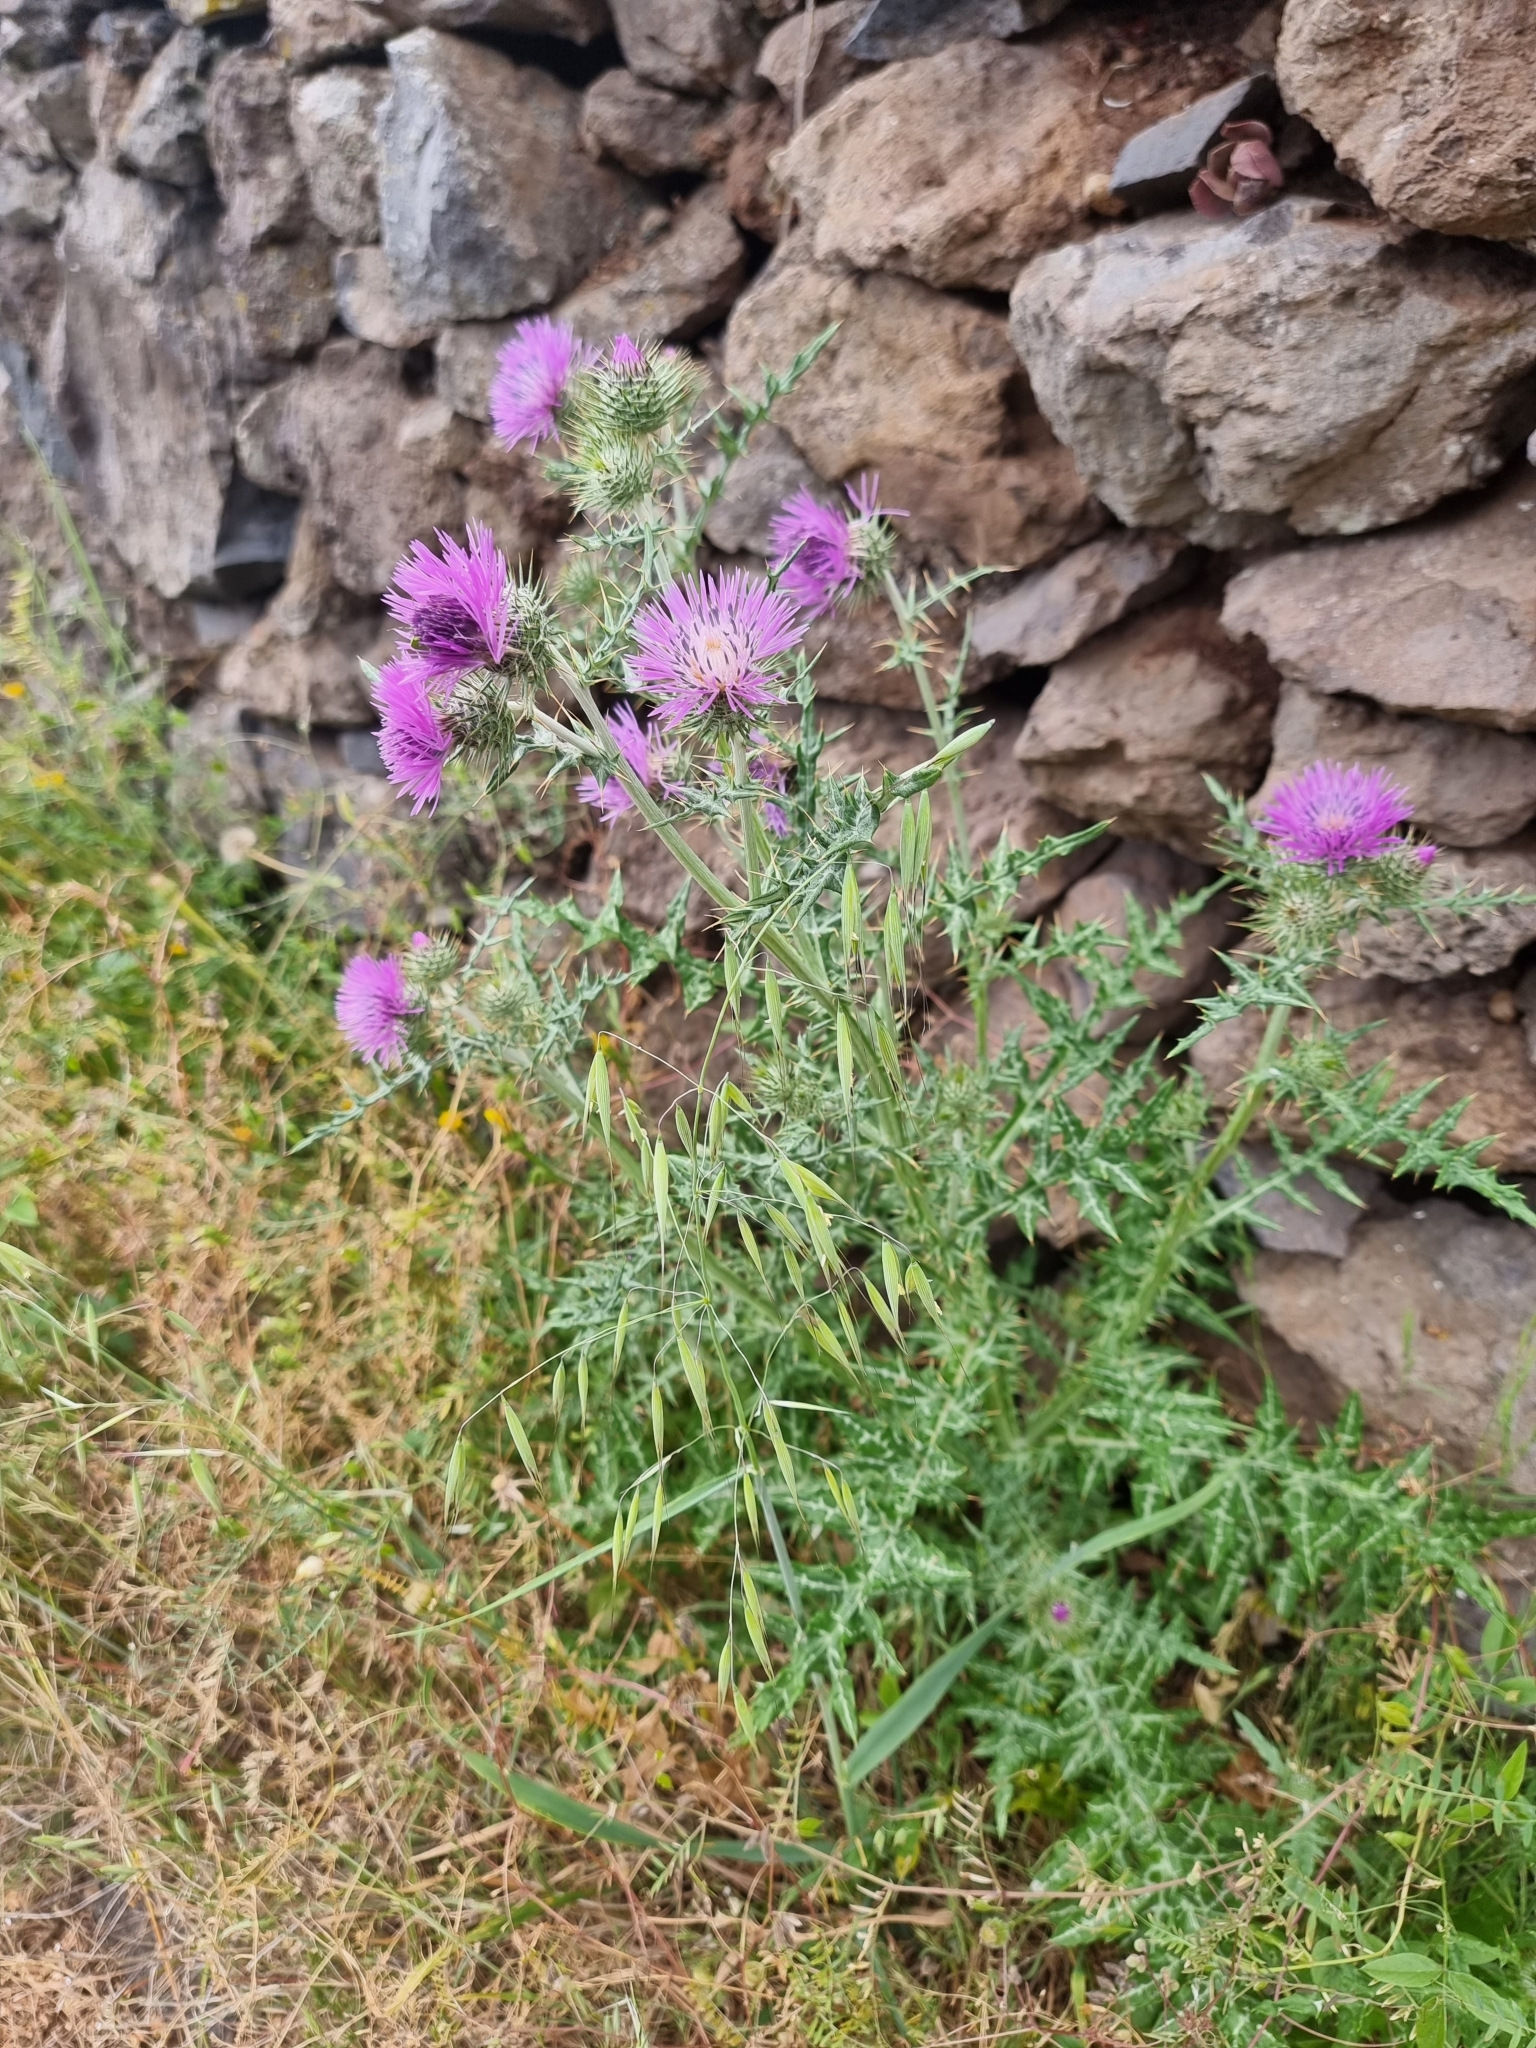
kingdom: Plantae
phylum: Tracheophyta
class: Magnoliopsida
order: Asterales
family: Asteraceae
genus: Galactites
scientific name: Galactites tomentosa
